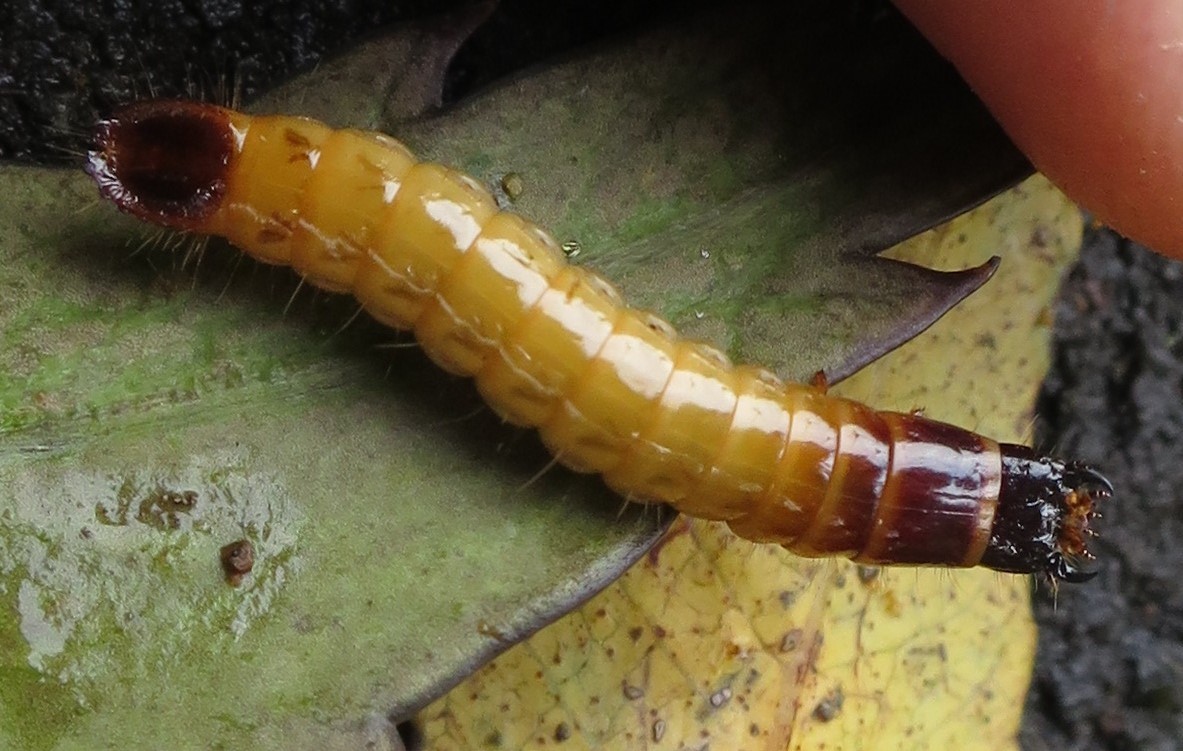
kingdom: Animalia
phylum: Arthropoda
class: Insecta
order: Coleoptera
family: Elateridae
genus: Conoderus
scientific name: Conoderus exsul
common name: Click beetle
